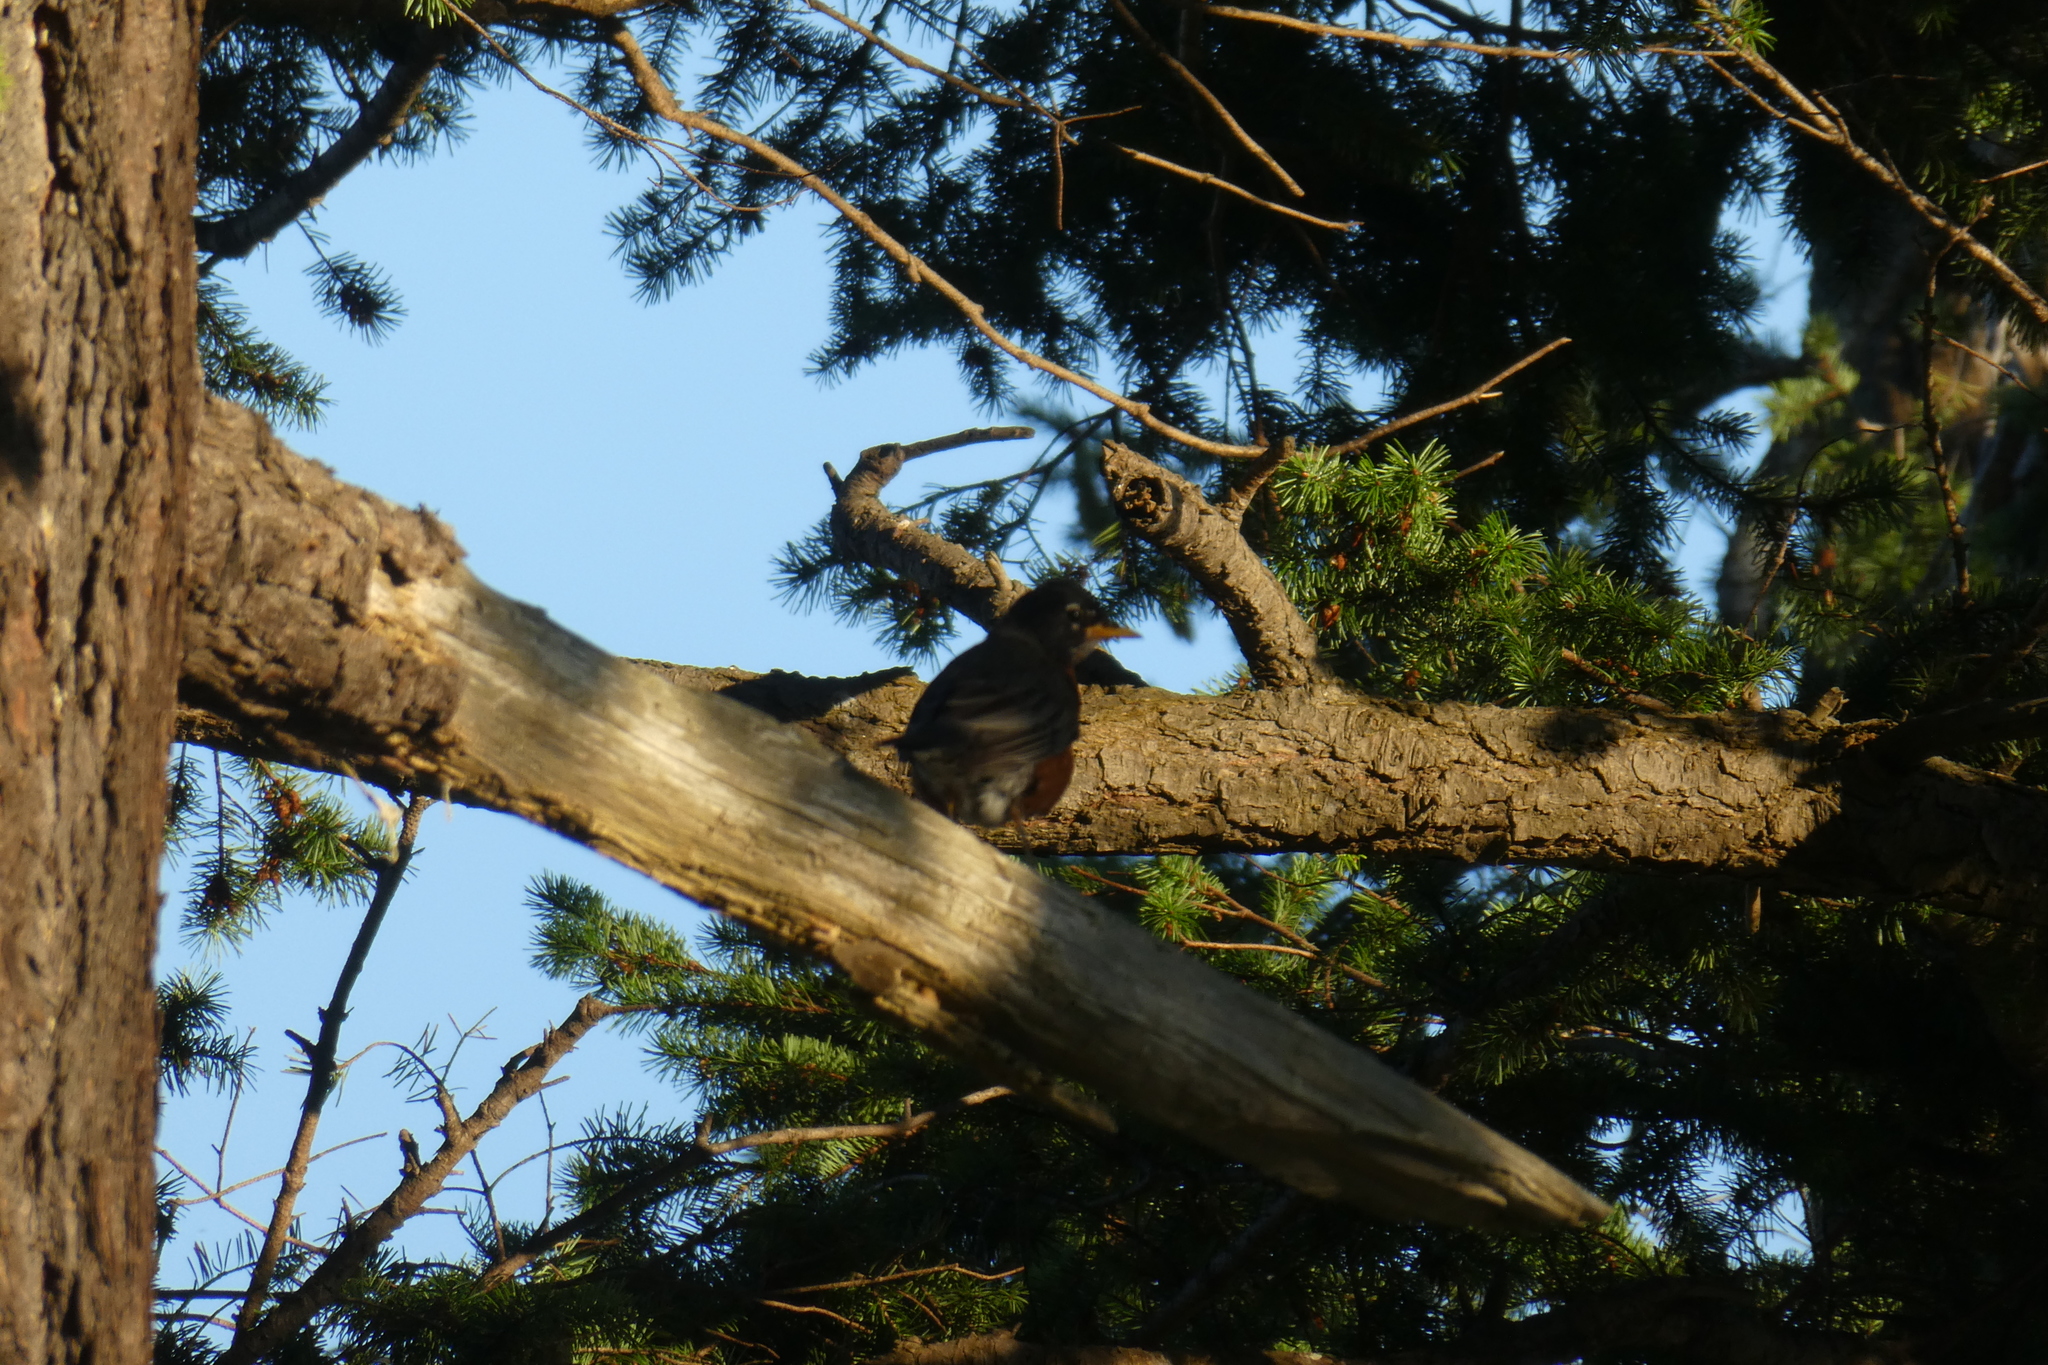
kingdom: Animalia
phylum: Chordata
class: Aves
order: Passeriformes
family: Turdidae
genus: Turdus
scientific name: Turdus migratorius
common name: American robin
